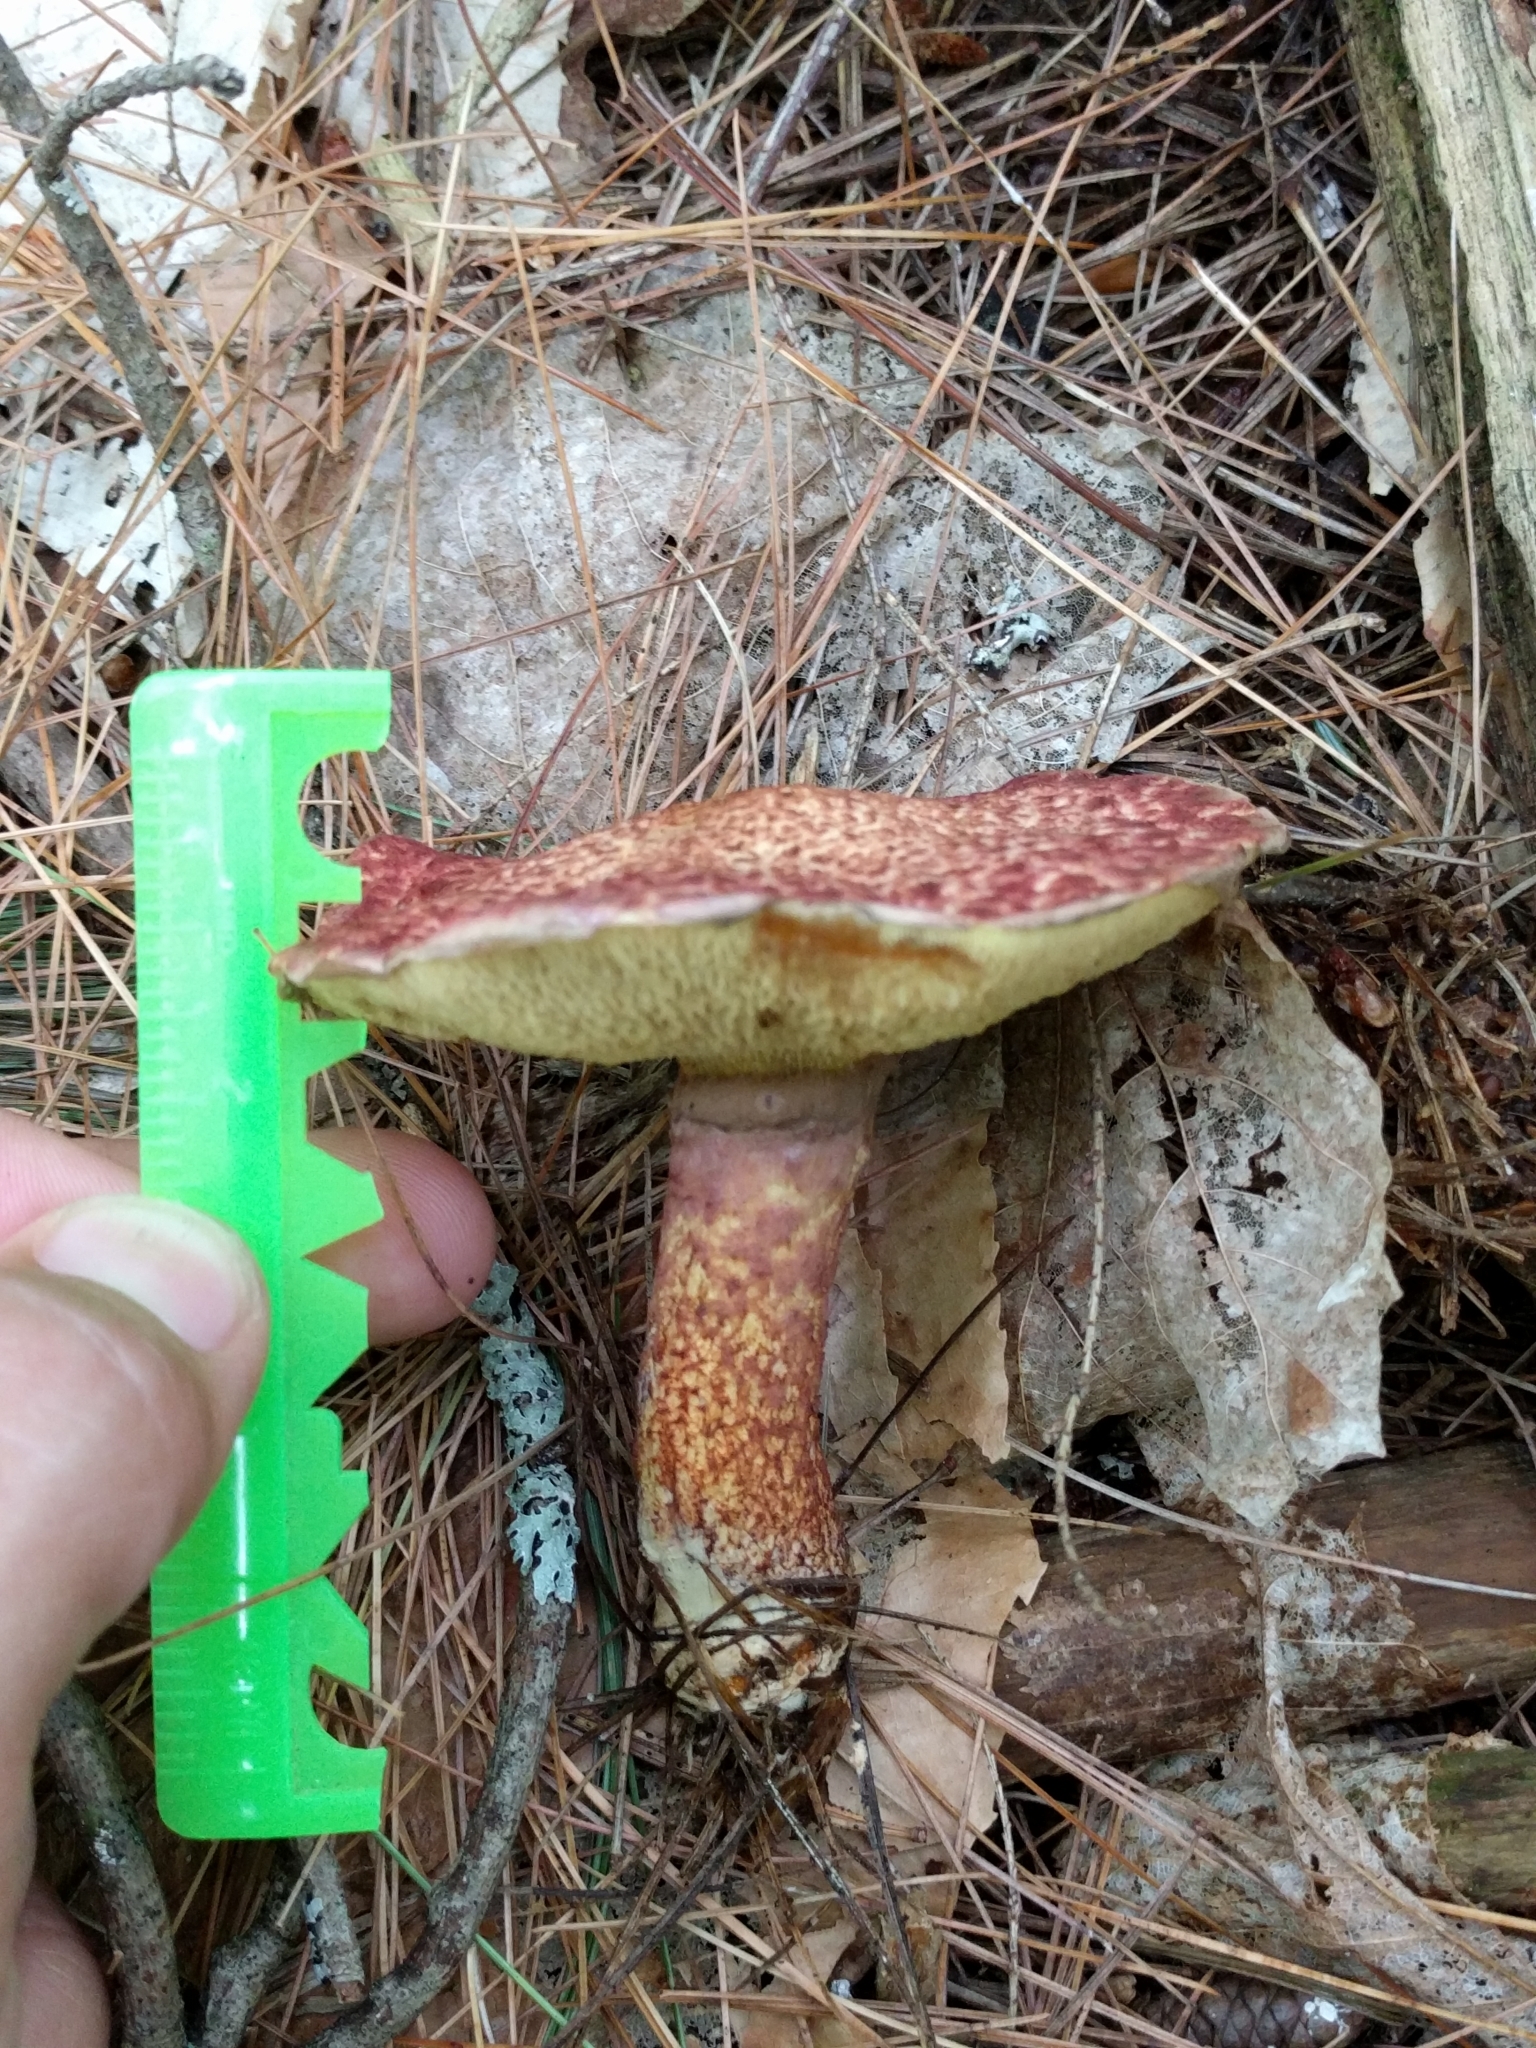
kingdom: Fungi
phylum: Basidiomycota
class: Agaricomycetes
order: Boletales
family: Suillaceae
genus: Suillus
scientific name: Suillus spraguei
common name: Painted suillus
